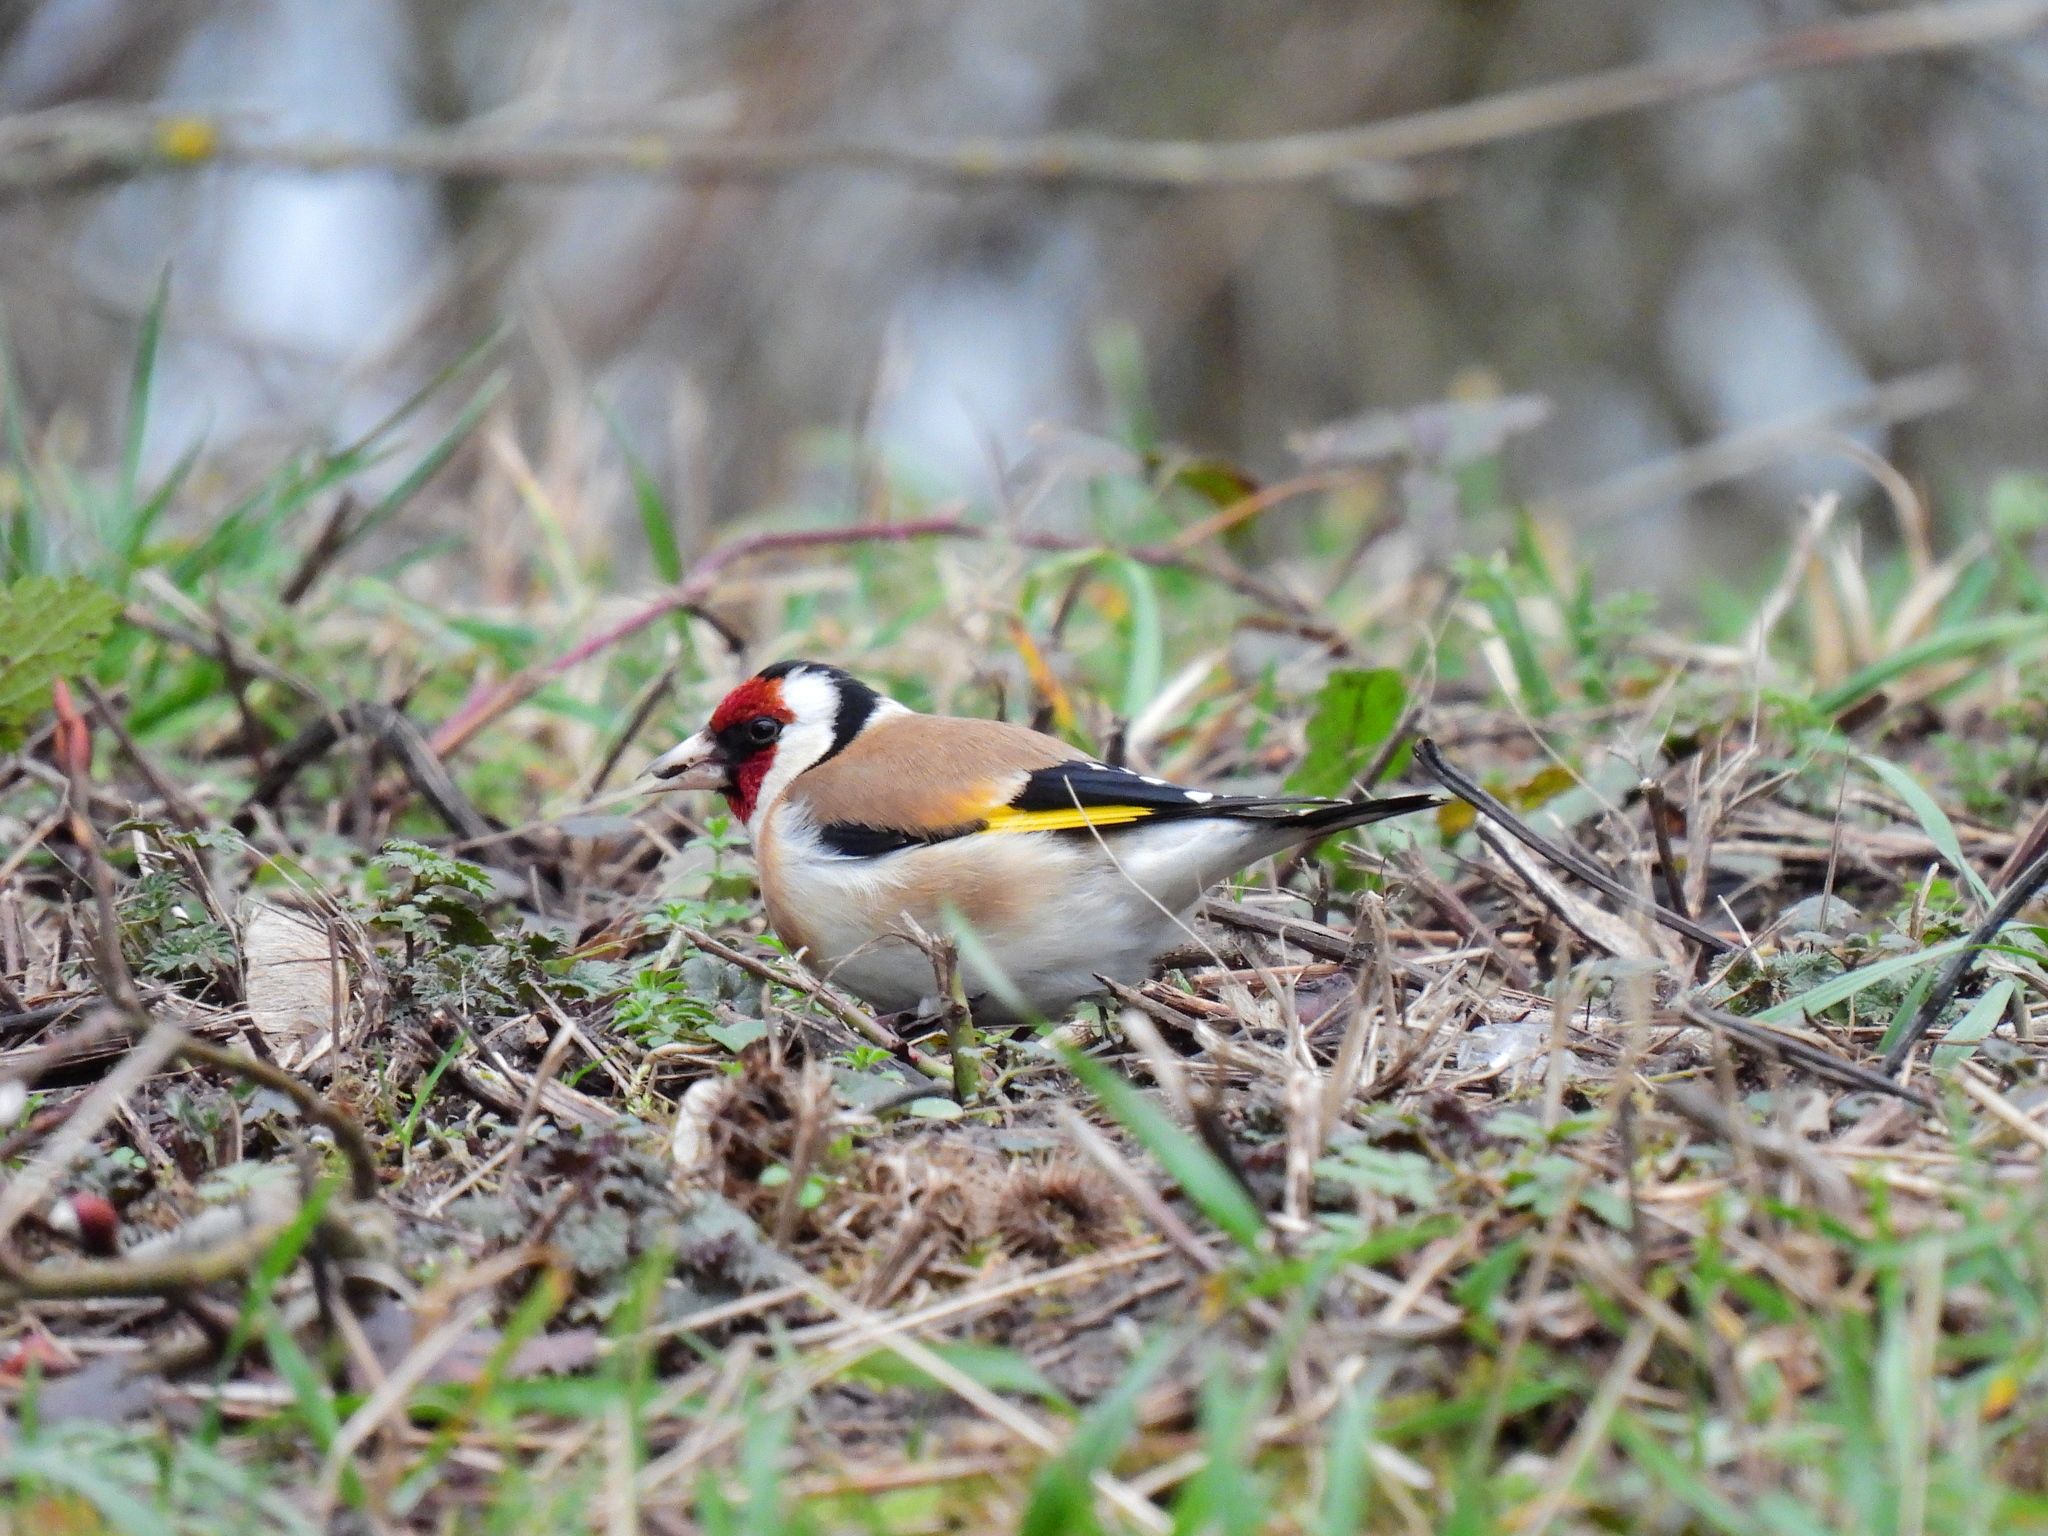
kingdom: Animalia
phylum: Chordata
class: Aves
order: Passeriformes
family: Fringillidae
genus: Carduelis
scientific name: Carduelis carduelis
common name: European goldfinch
